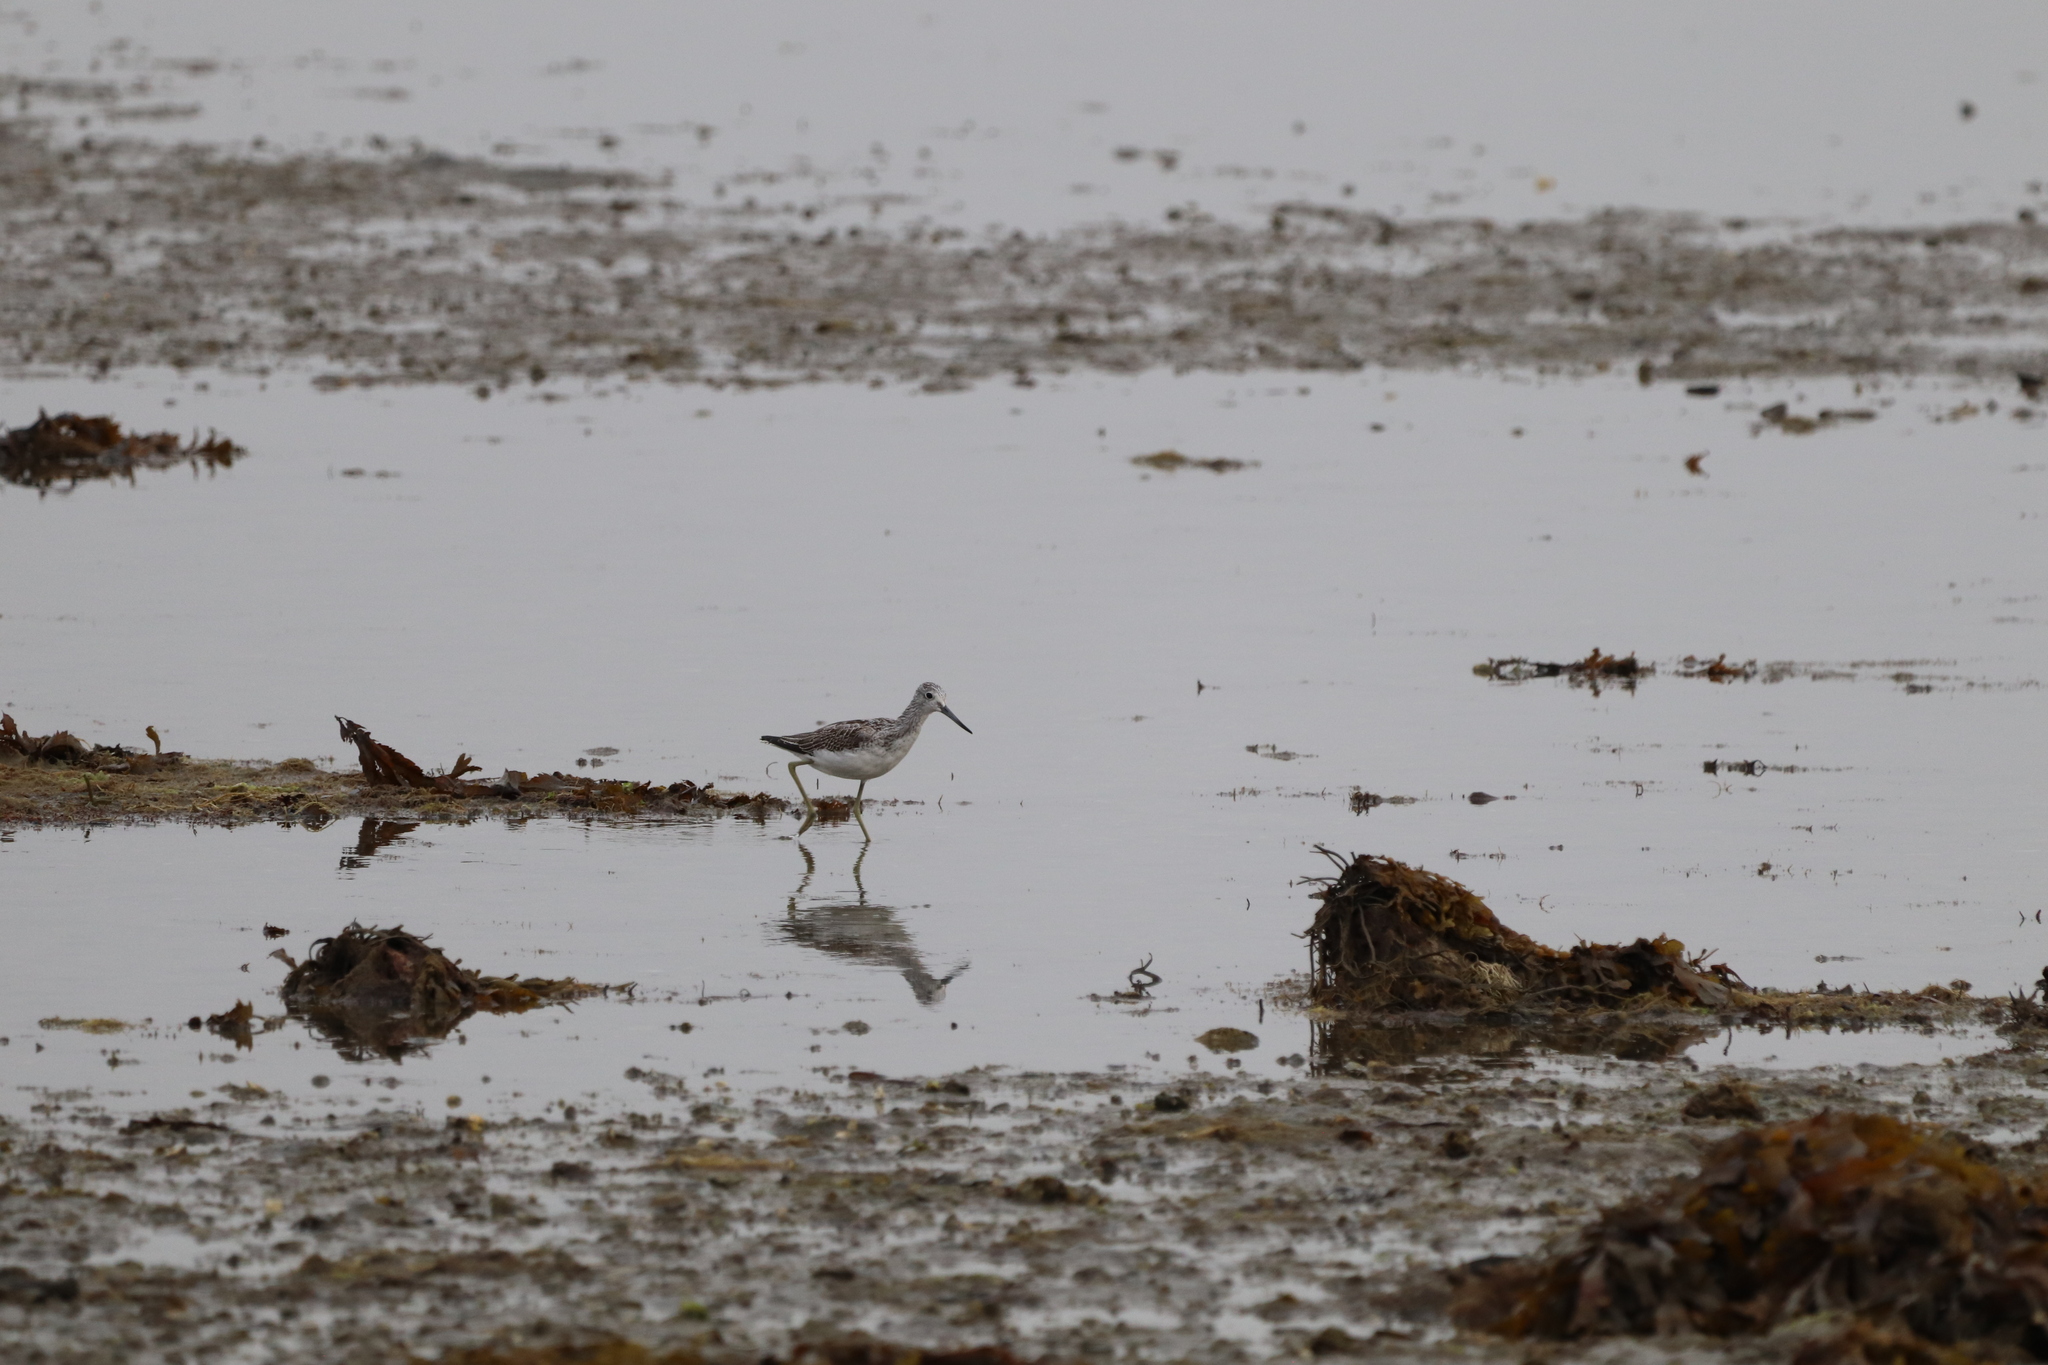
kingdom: Animalia
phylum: Chordata
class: Aves
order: Charadriiformes
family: Scolopacidae
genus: Tringa
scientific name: Tringa nebularia
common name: Common greenshank
